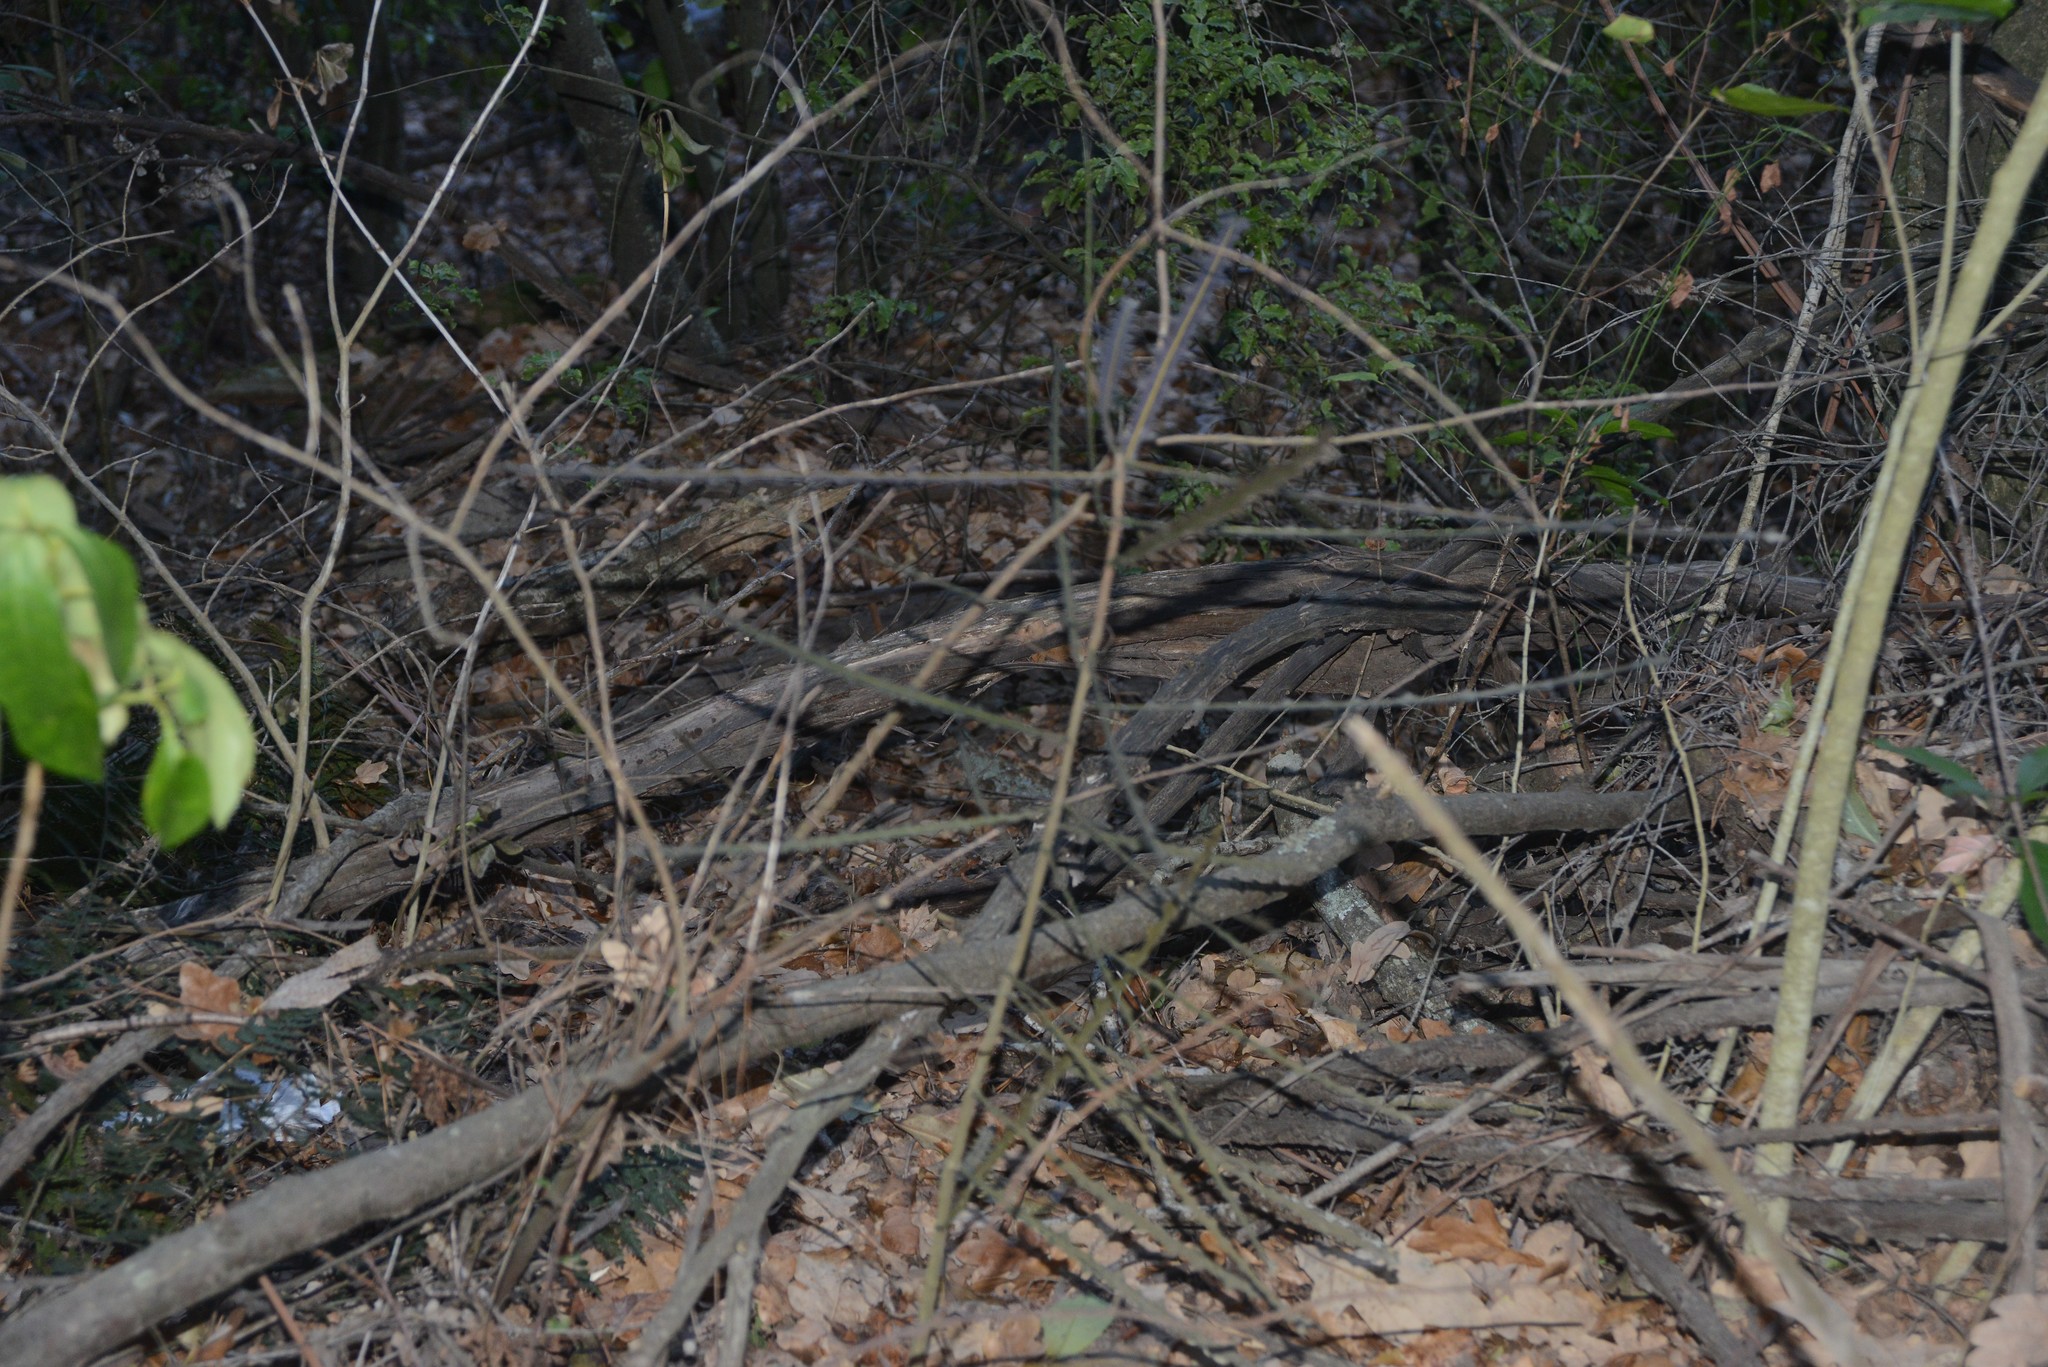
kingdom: Plantae
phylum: Tracheophyta
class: Magnoliopsida
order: Apiales
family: Araliaceae
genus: Pseudopanax
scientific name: Pseudopanax ferox
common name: Fierce lancewood
